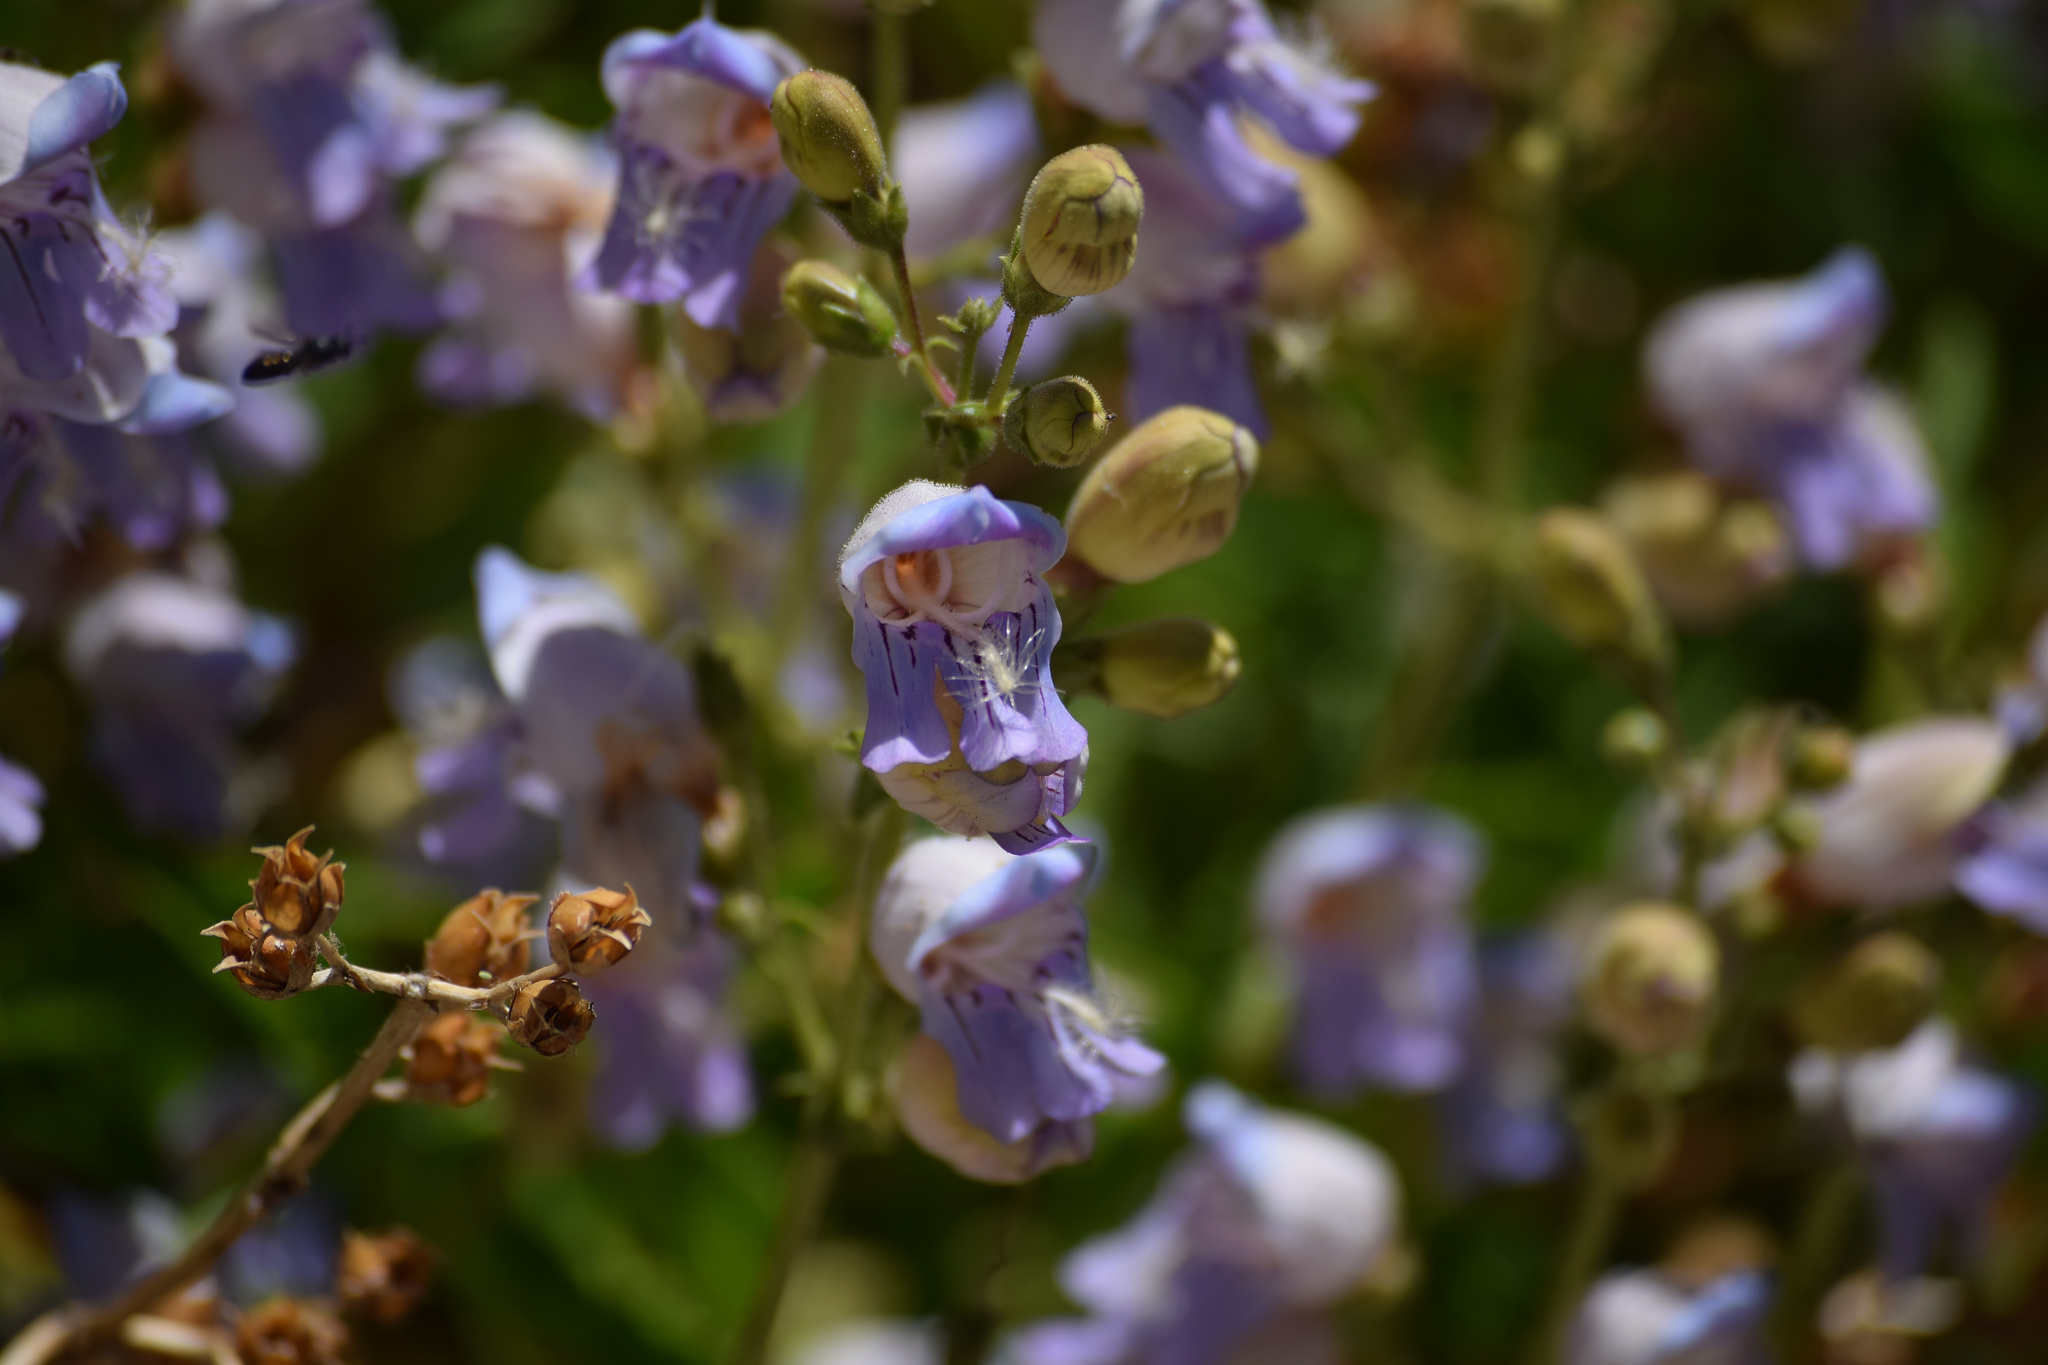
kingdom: Plantae
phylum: Tracheophyta
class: Magnoliopsida
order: Lamiales
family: Plantaginaceae
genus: Penstemon
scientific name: Penstemon grinnellii
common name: Grinnell's beardtongue
